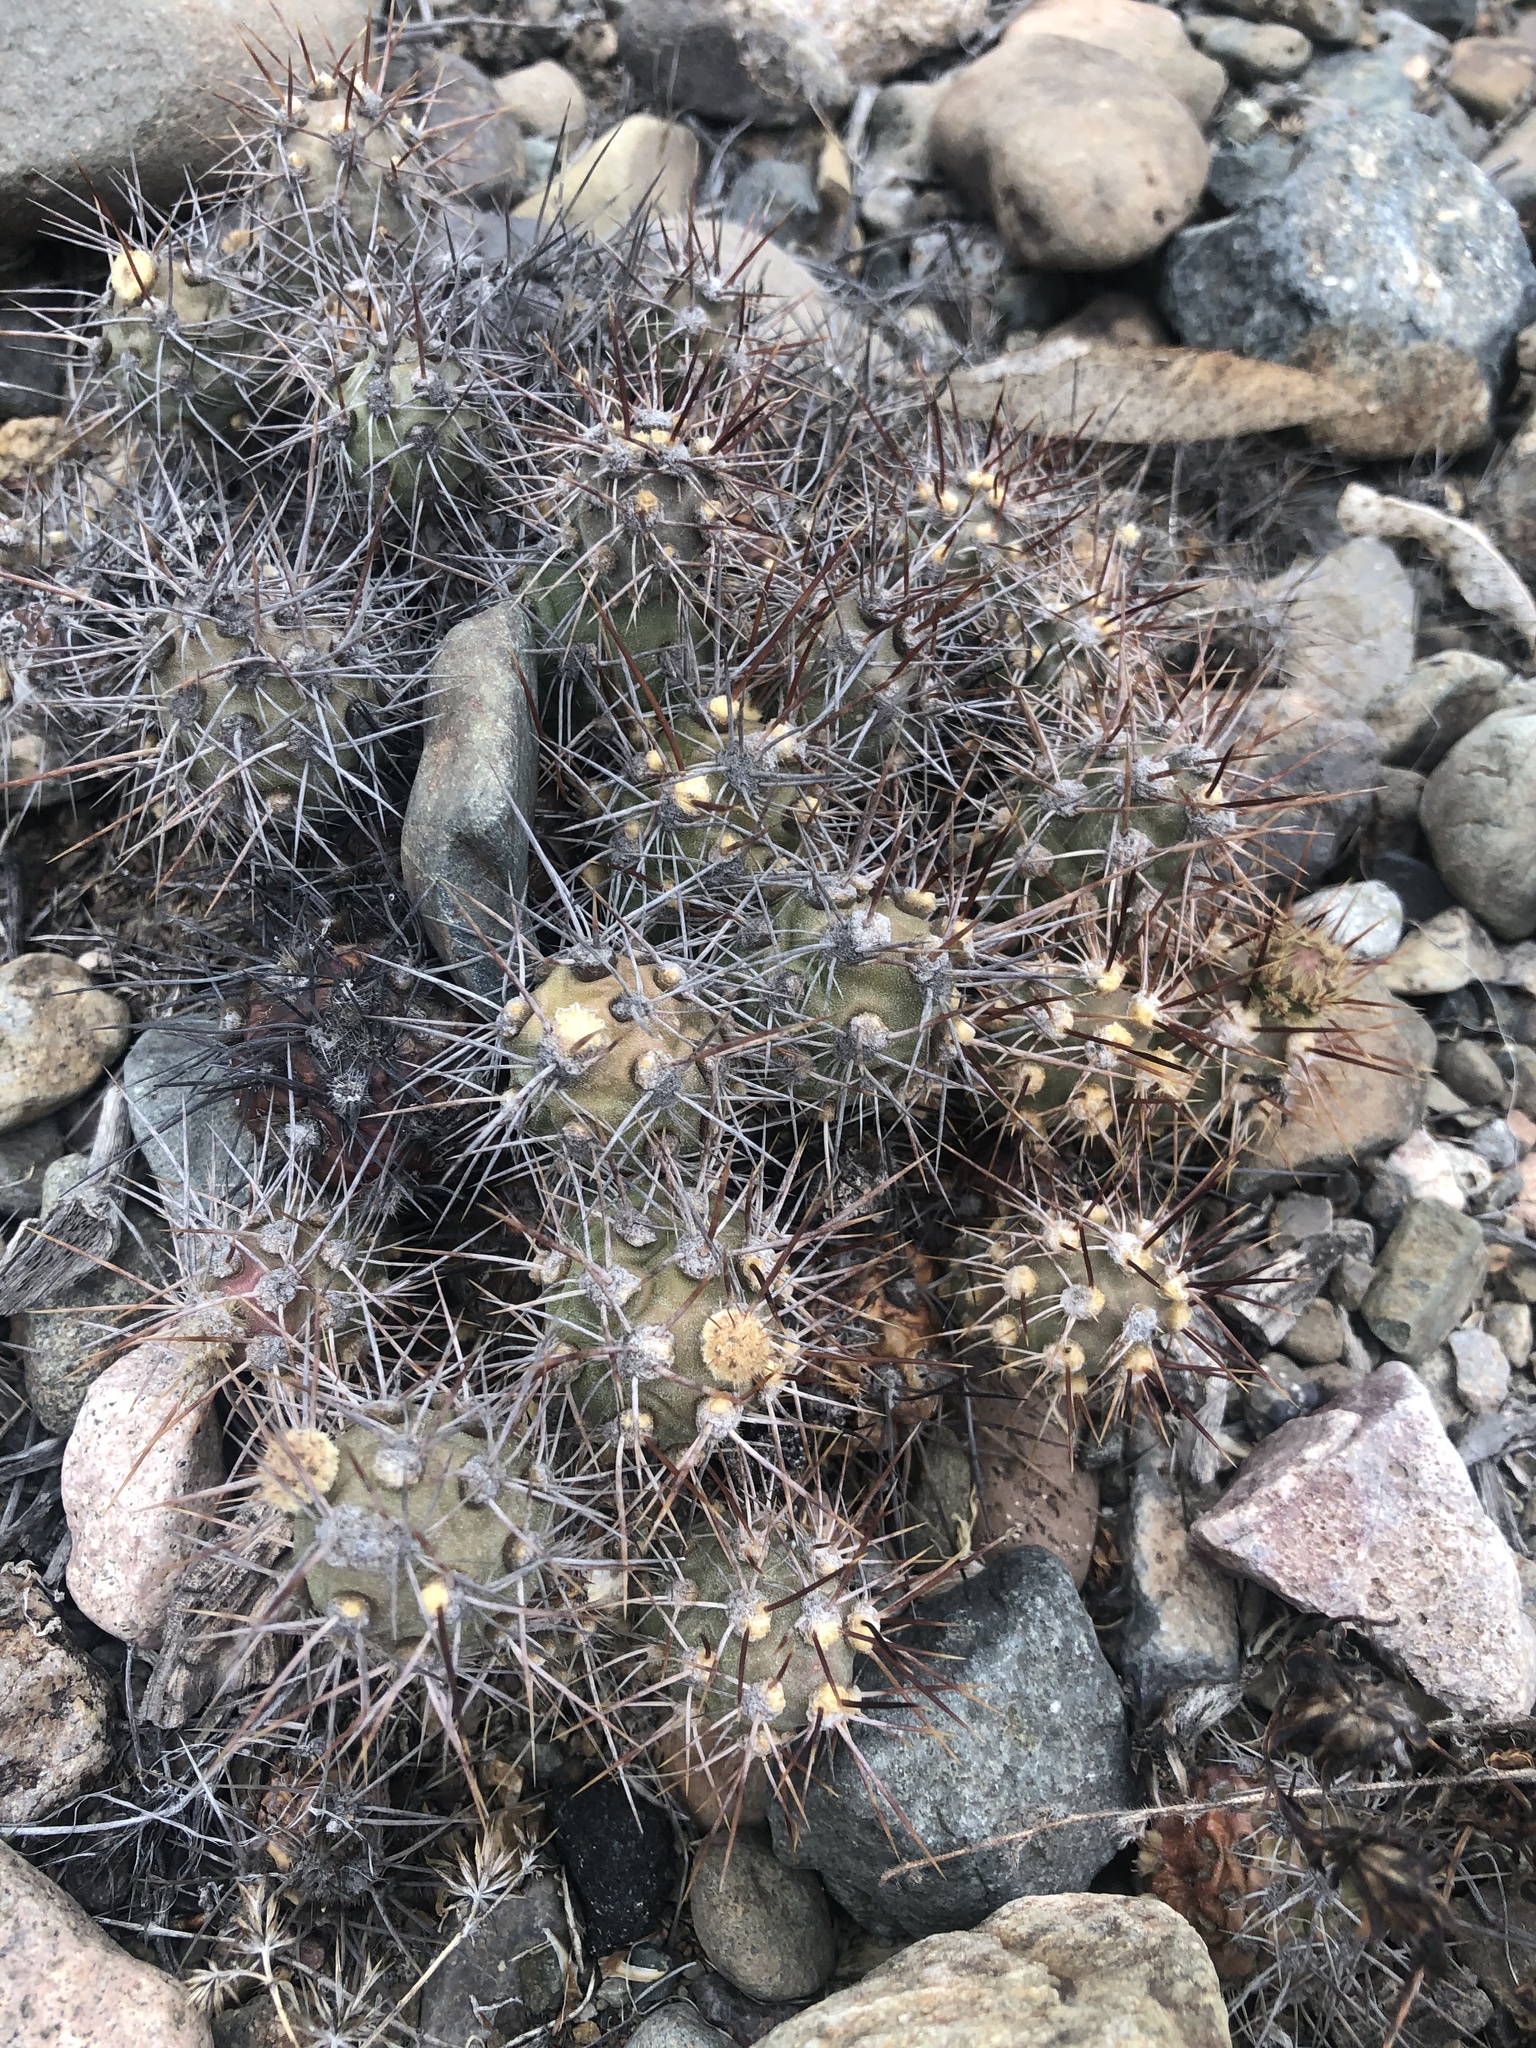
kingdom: Plantae
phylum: Tracheophyta
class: Magnoliopsida
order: Caryophyllales
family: Cactaceae
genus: Cumulopuntia
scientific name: Cumulopuntia leucophaea
